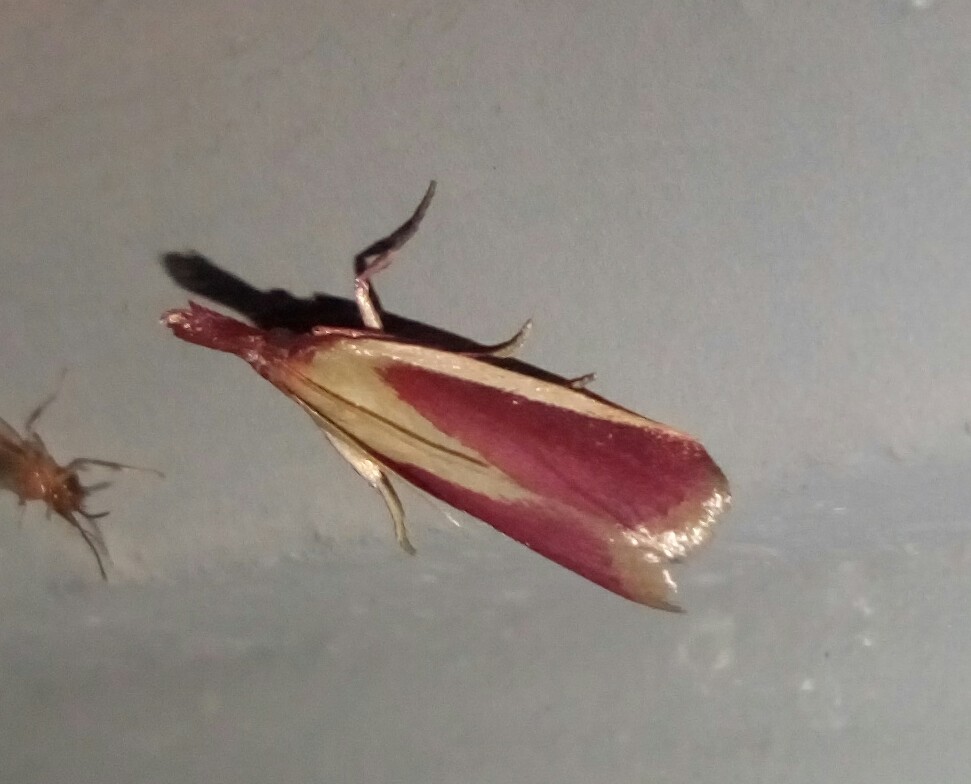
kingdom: Animalia
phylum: Arthropoda
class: Insecta
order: Lepidoptera
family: Pyralidae
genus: Peoria
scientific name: Peoria approximella
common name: Carmine snout
